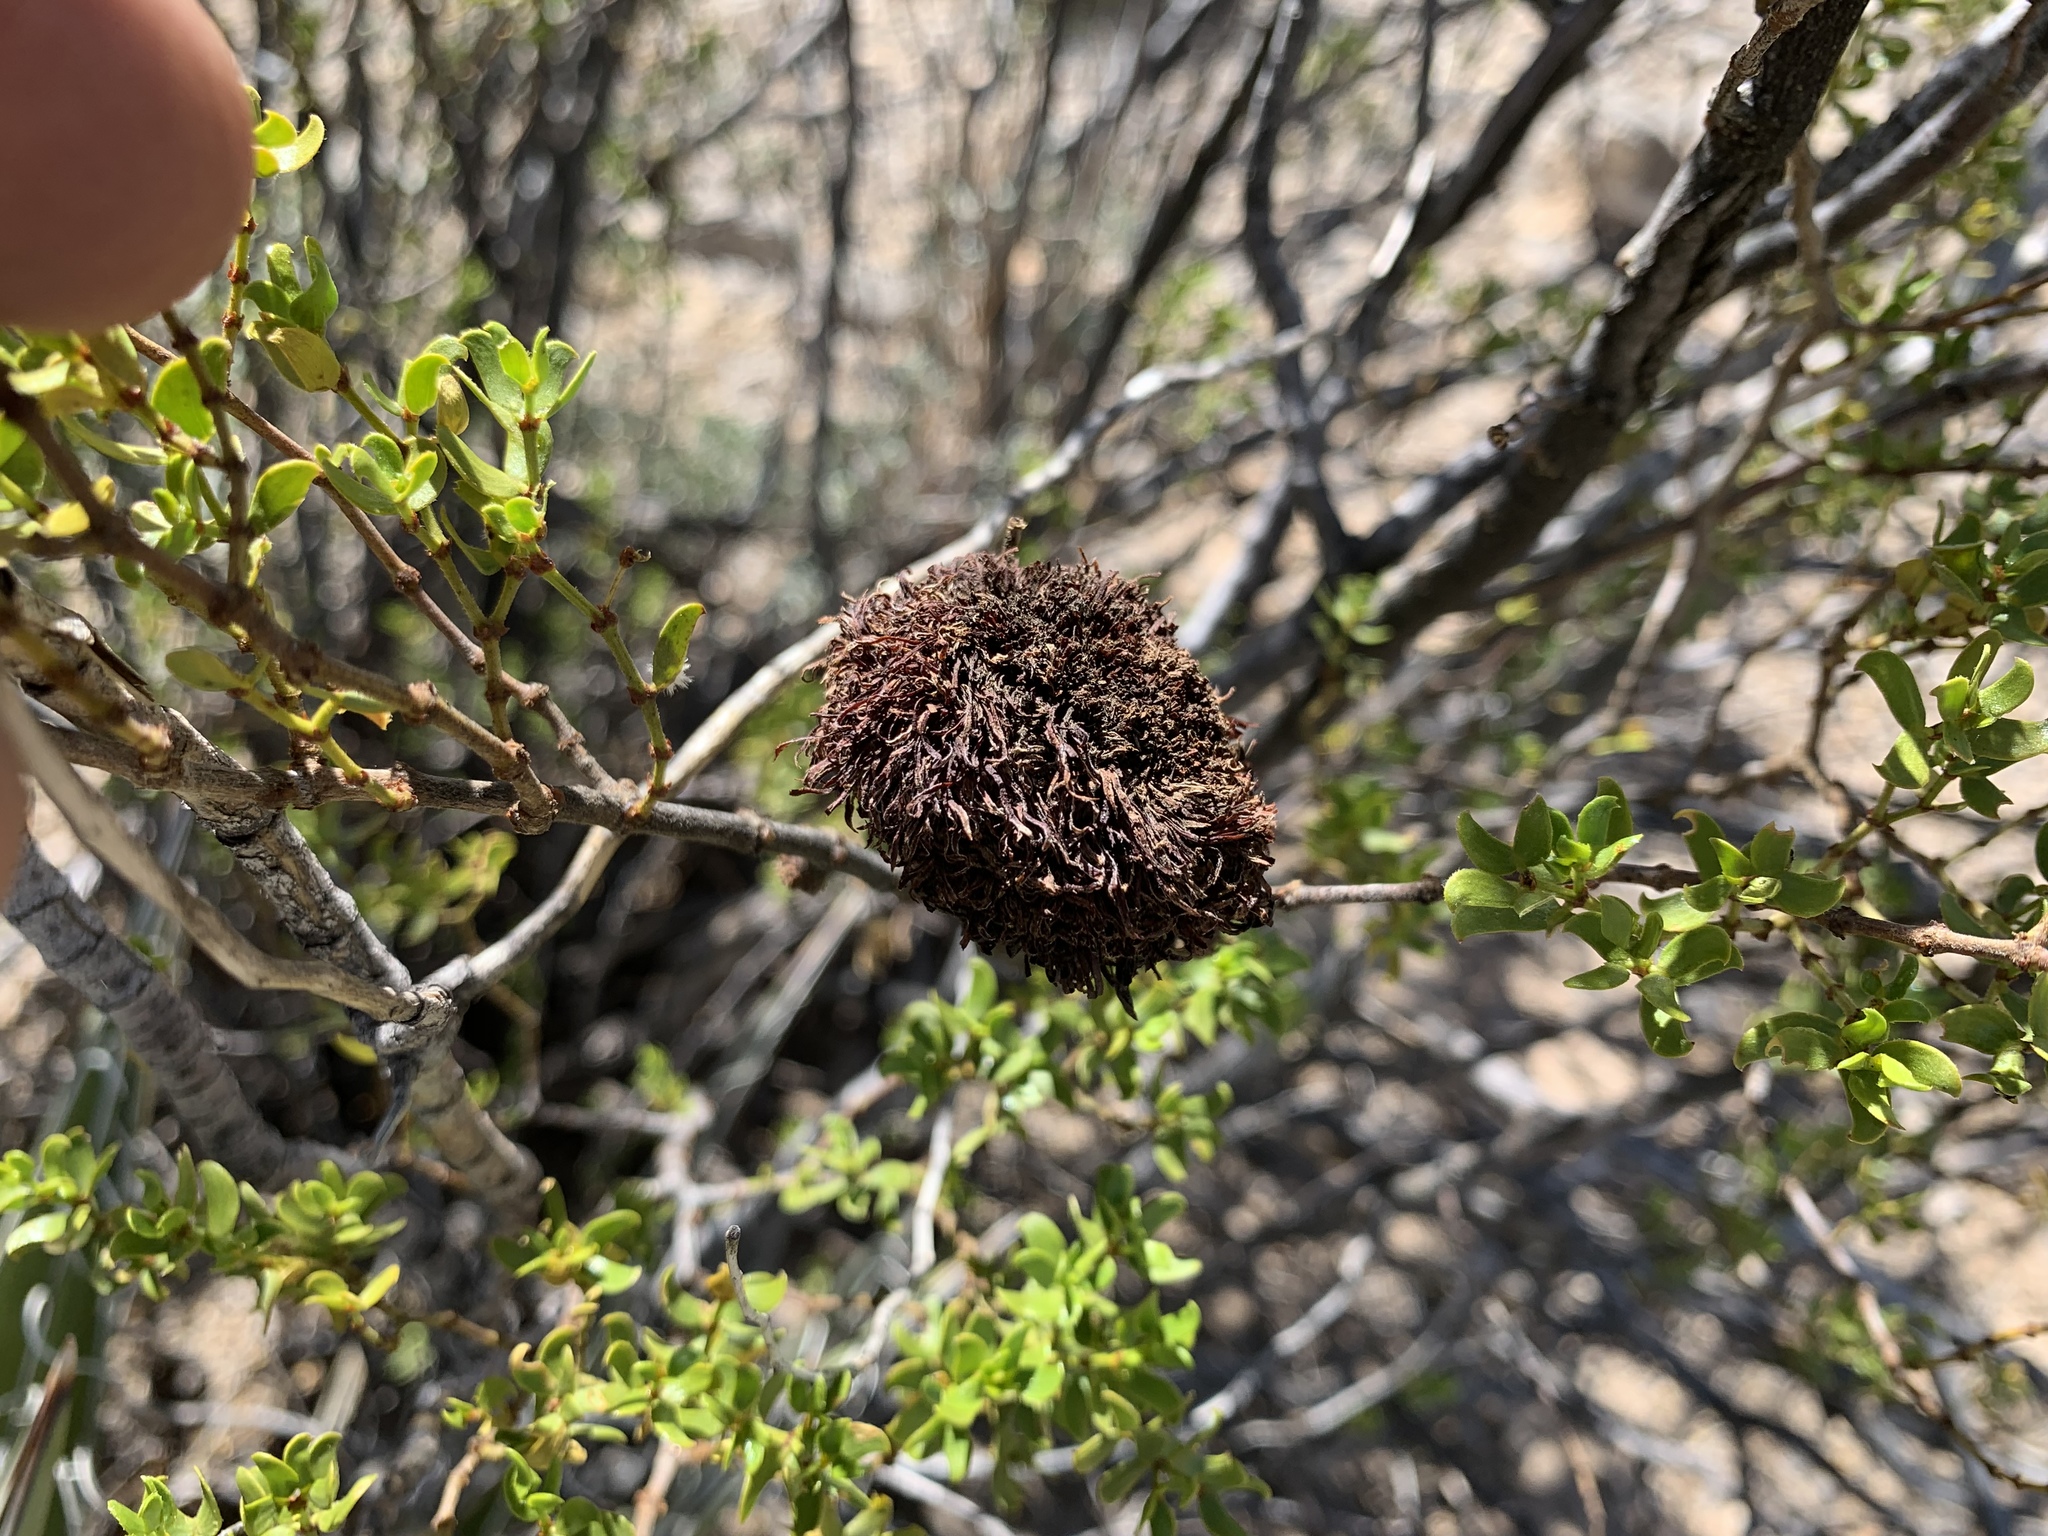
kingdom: Animalia
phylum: Arthropoda
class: Insecta
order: Diptera
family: Cecidomyiidae
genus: Asphondylia
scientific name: Asphondylia auripila
